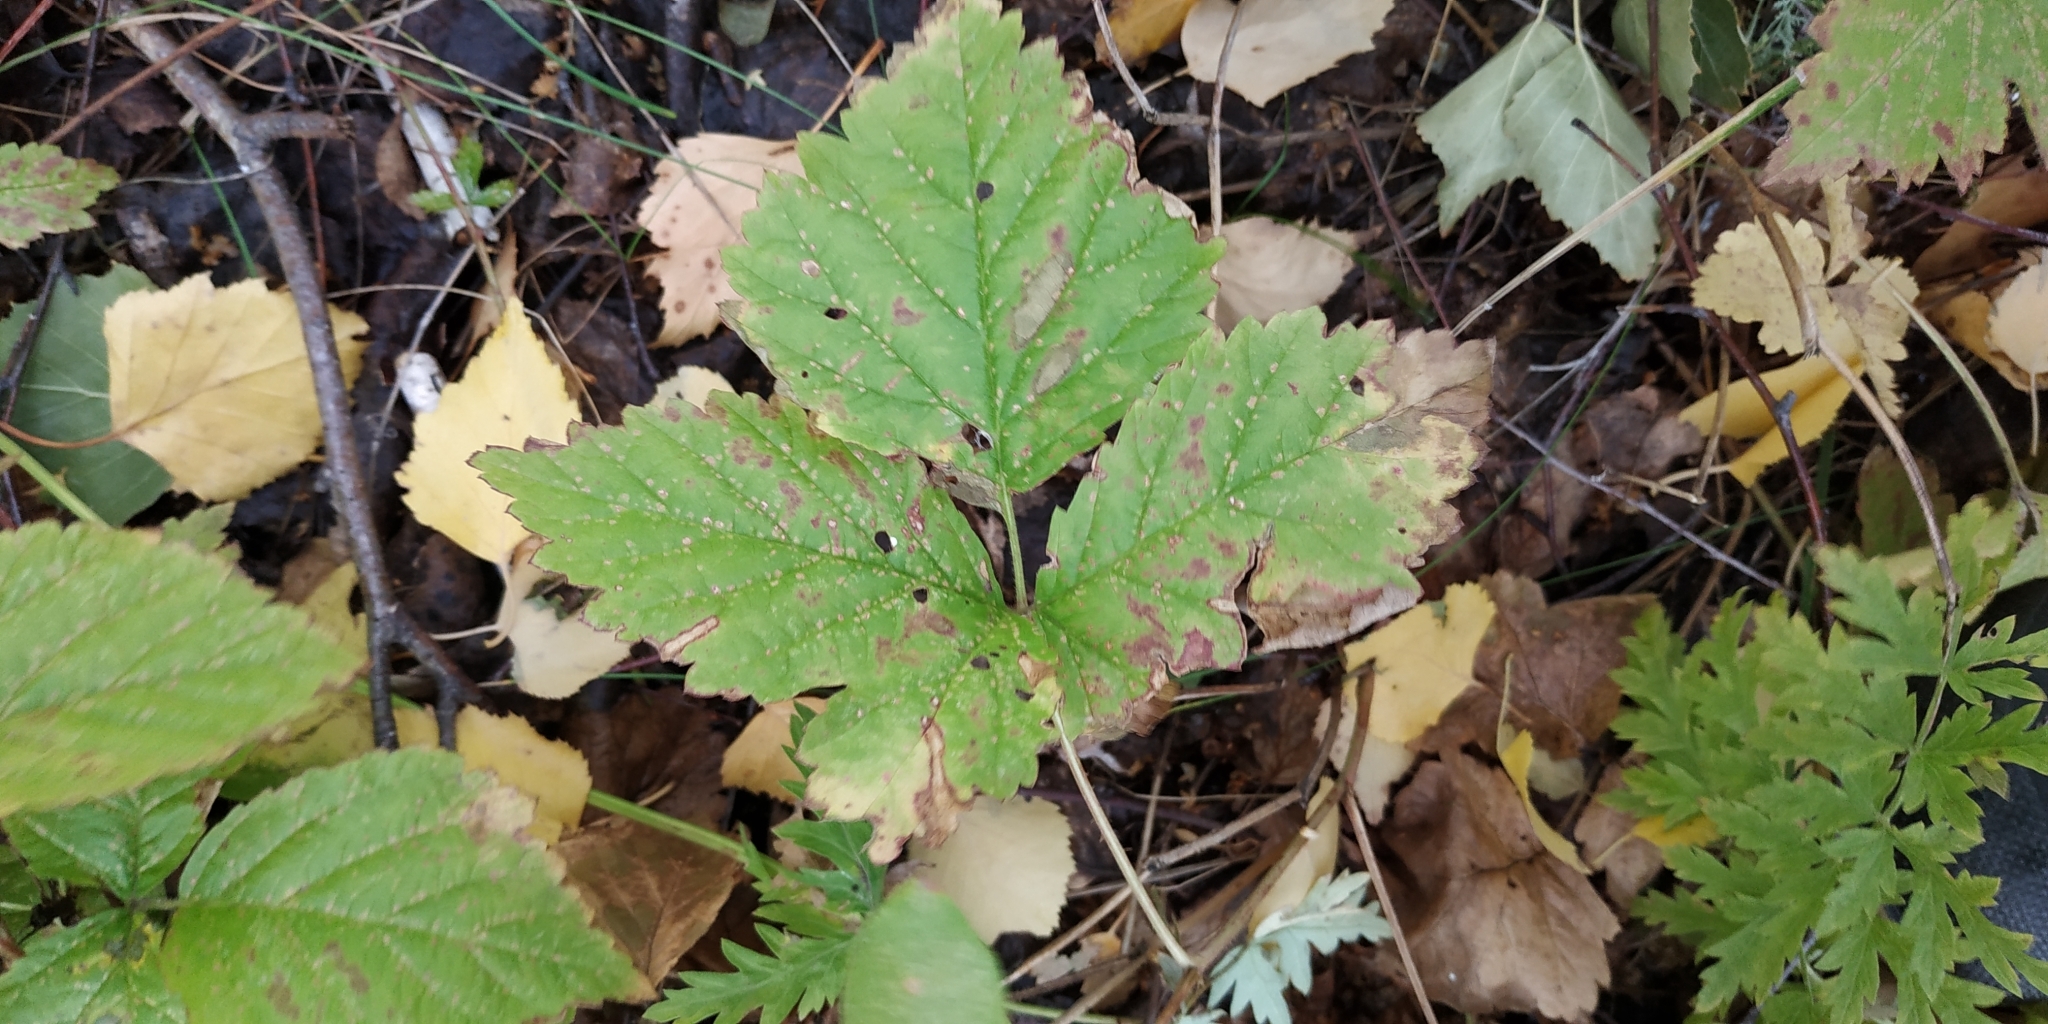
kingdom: Plantae
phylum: Tracheophyta
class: Magnoliopsida
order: Rosales
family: Rosaceae
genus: Rubus
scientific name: Rubus saxatilis
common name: Stone bramble
